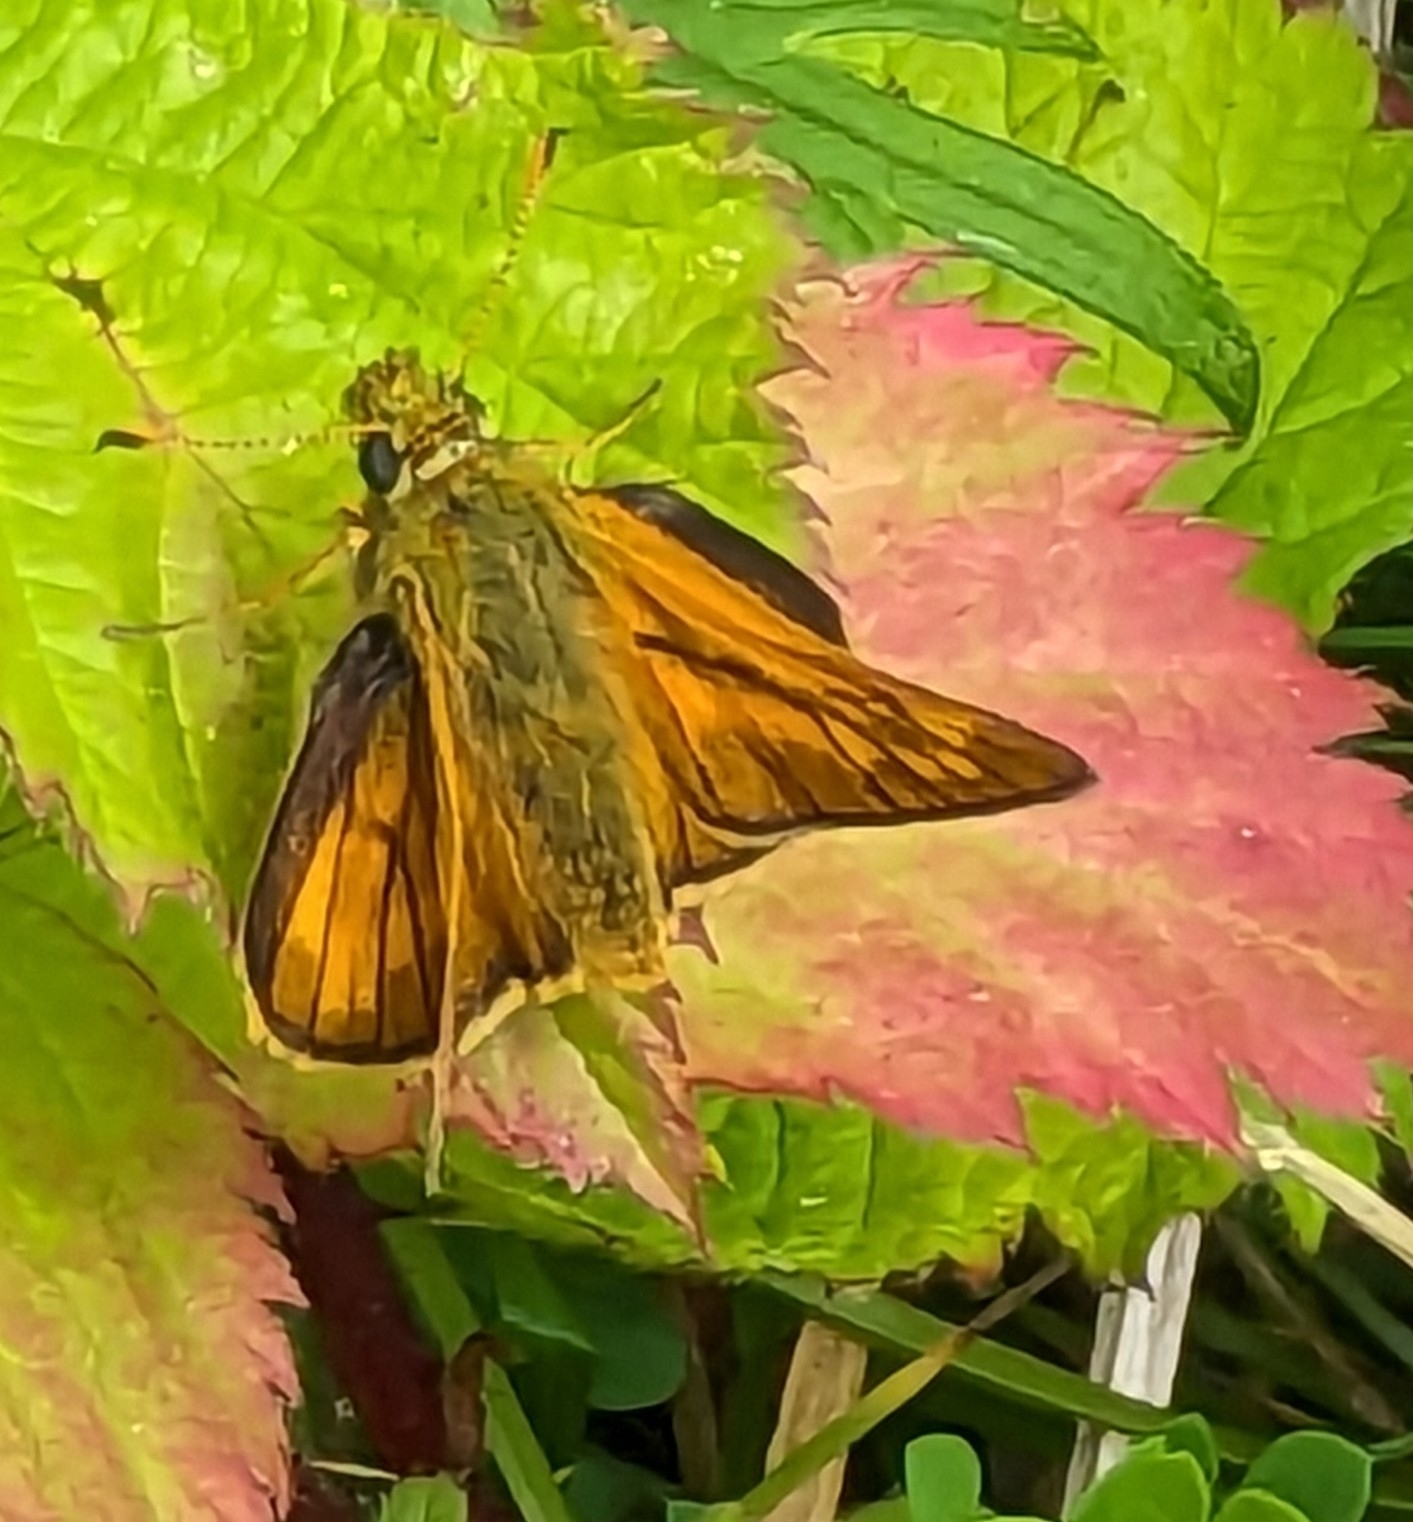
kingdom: Animalia
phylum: Arthropoda
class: Insecta
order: Lepidoptera
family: Hesperiidae
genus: Ochlodes
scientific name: Ochlodes venata
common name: Large skipper
